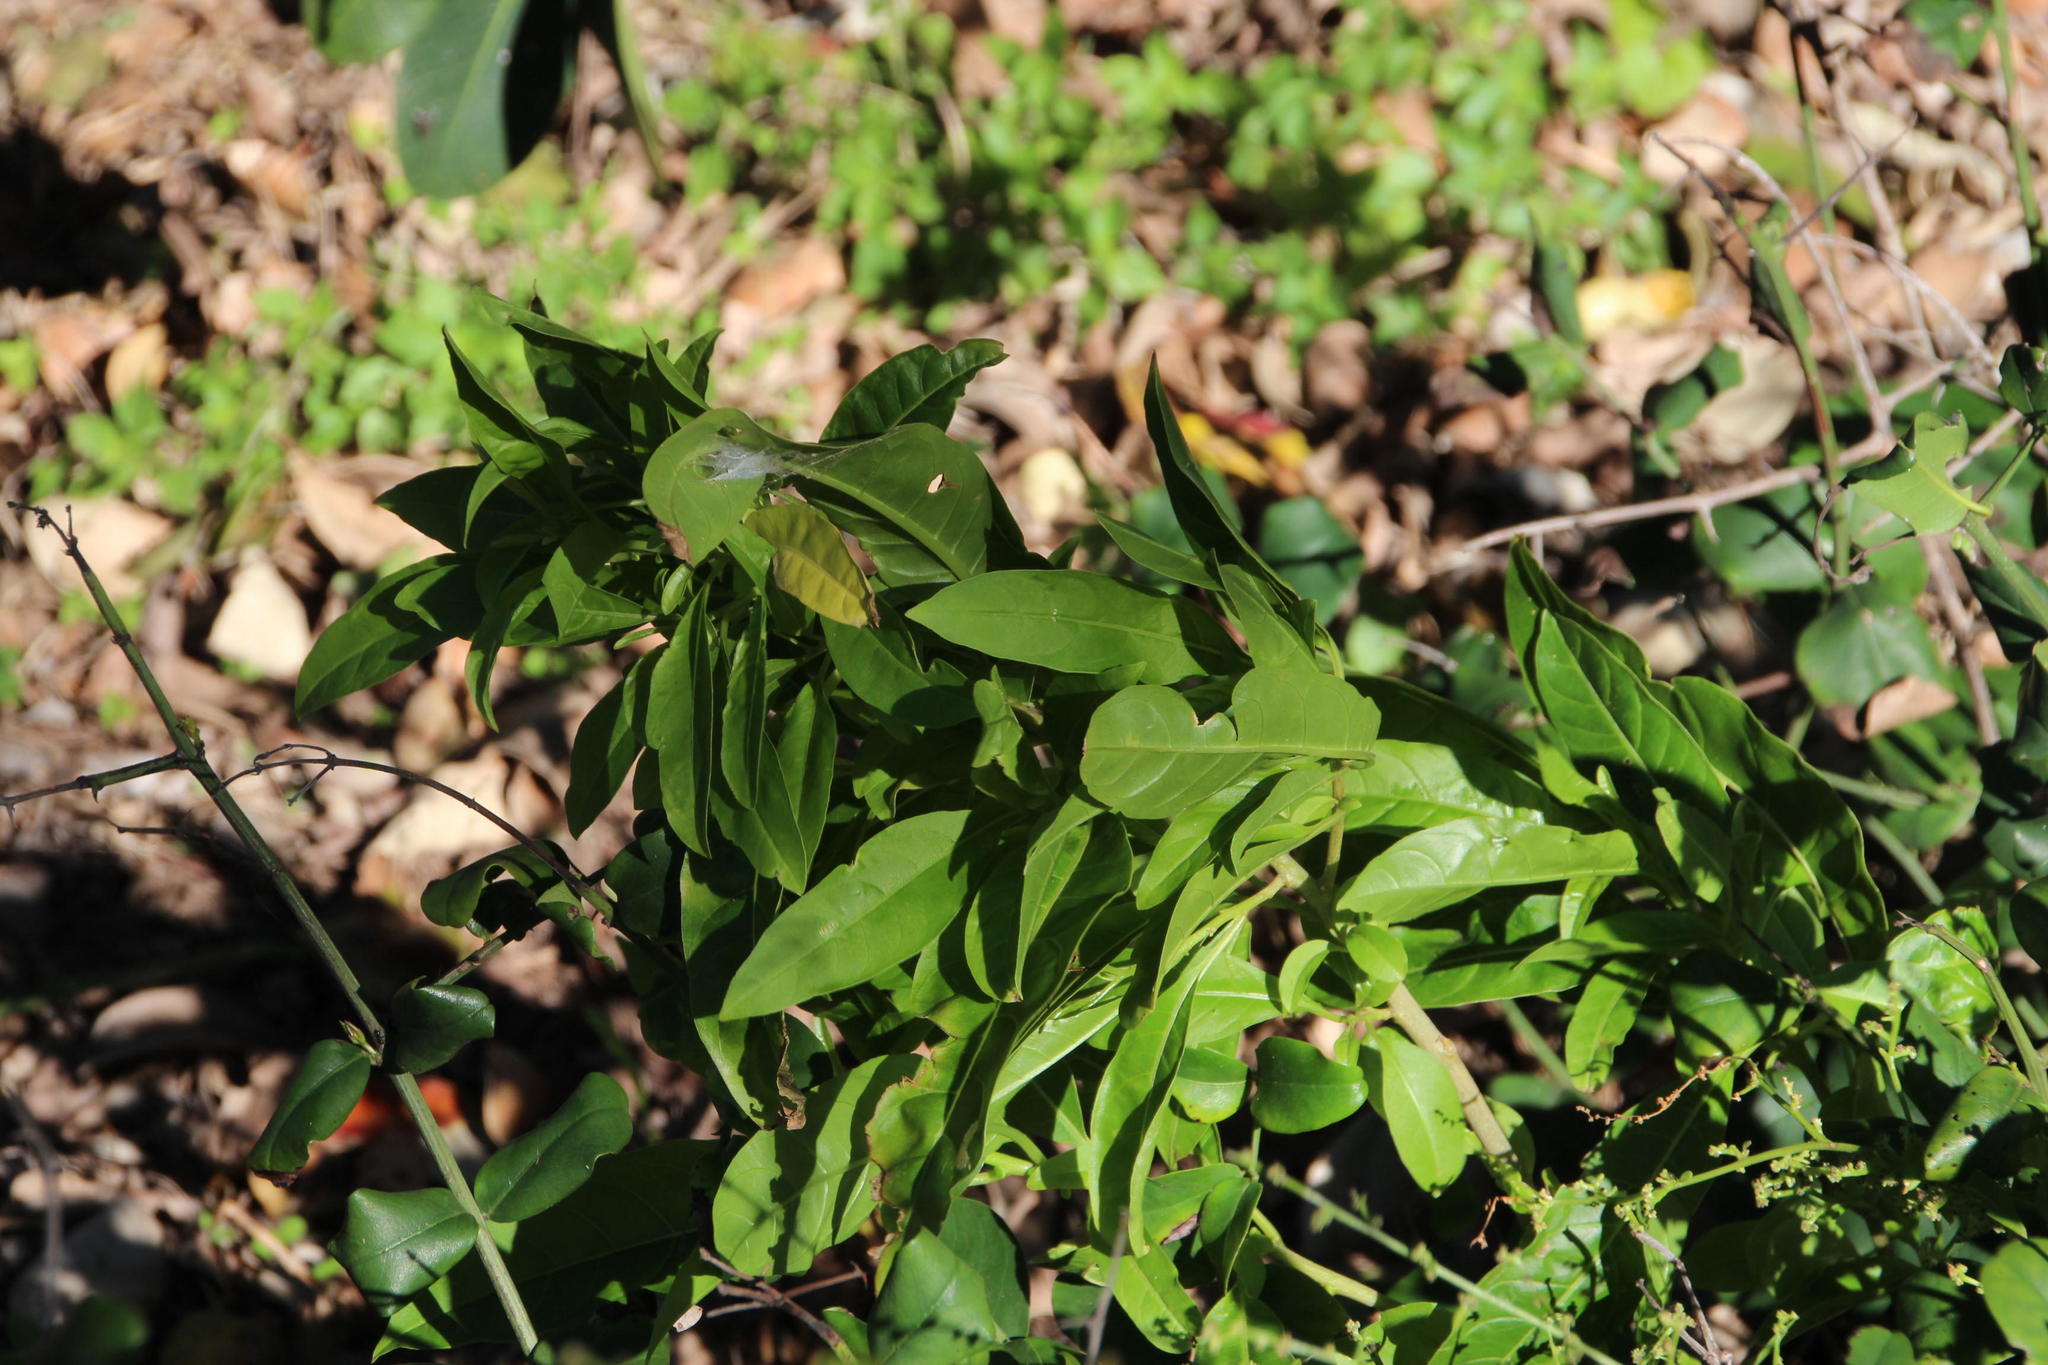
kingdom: Plantae
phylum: Tracheophyta
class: Magnoliopsida
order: Solanales
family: Solanaceae
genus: Cestrum
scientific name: Cestrum laevigatum
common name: Inkberry
